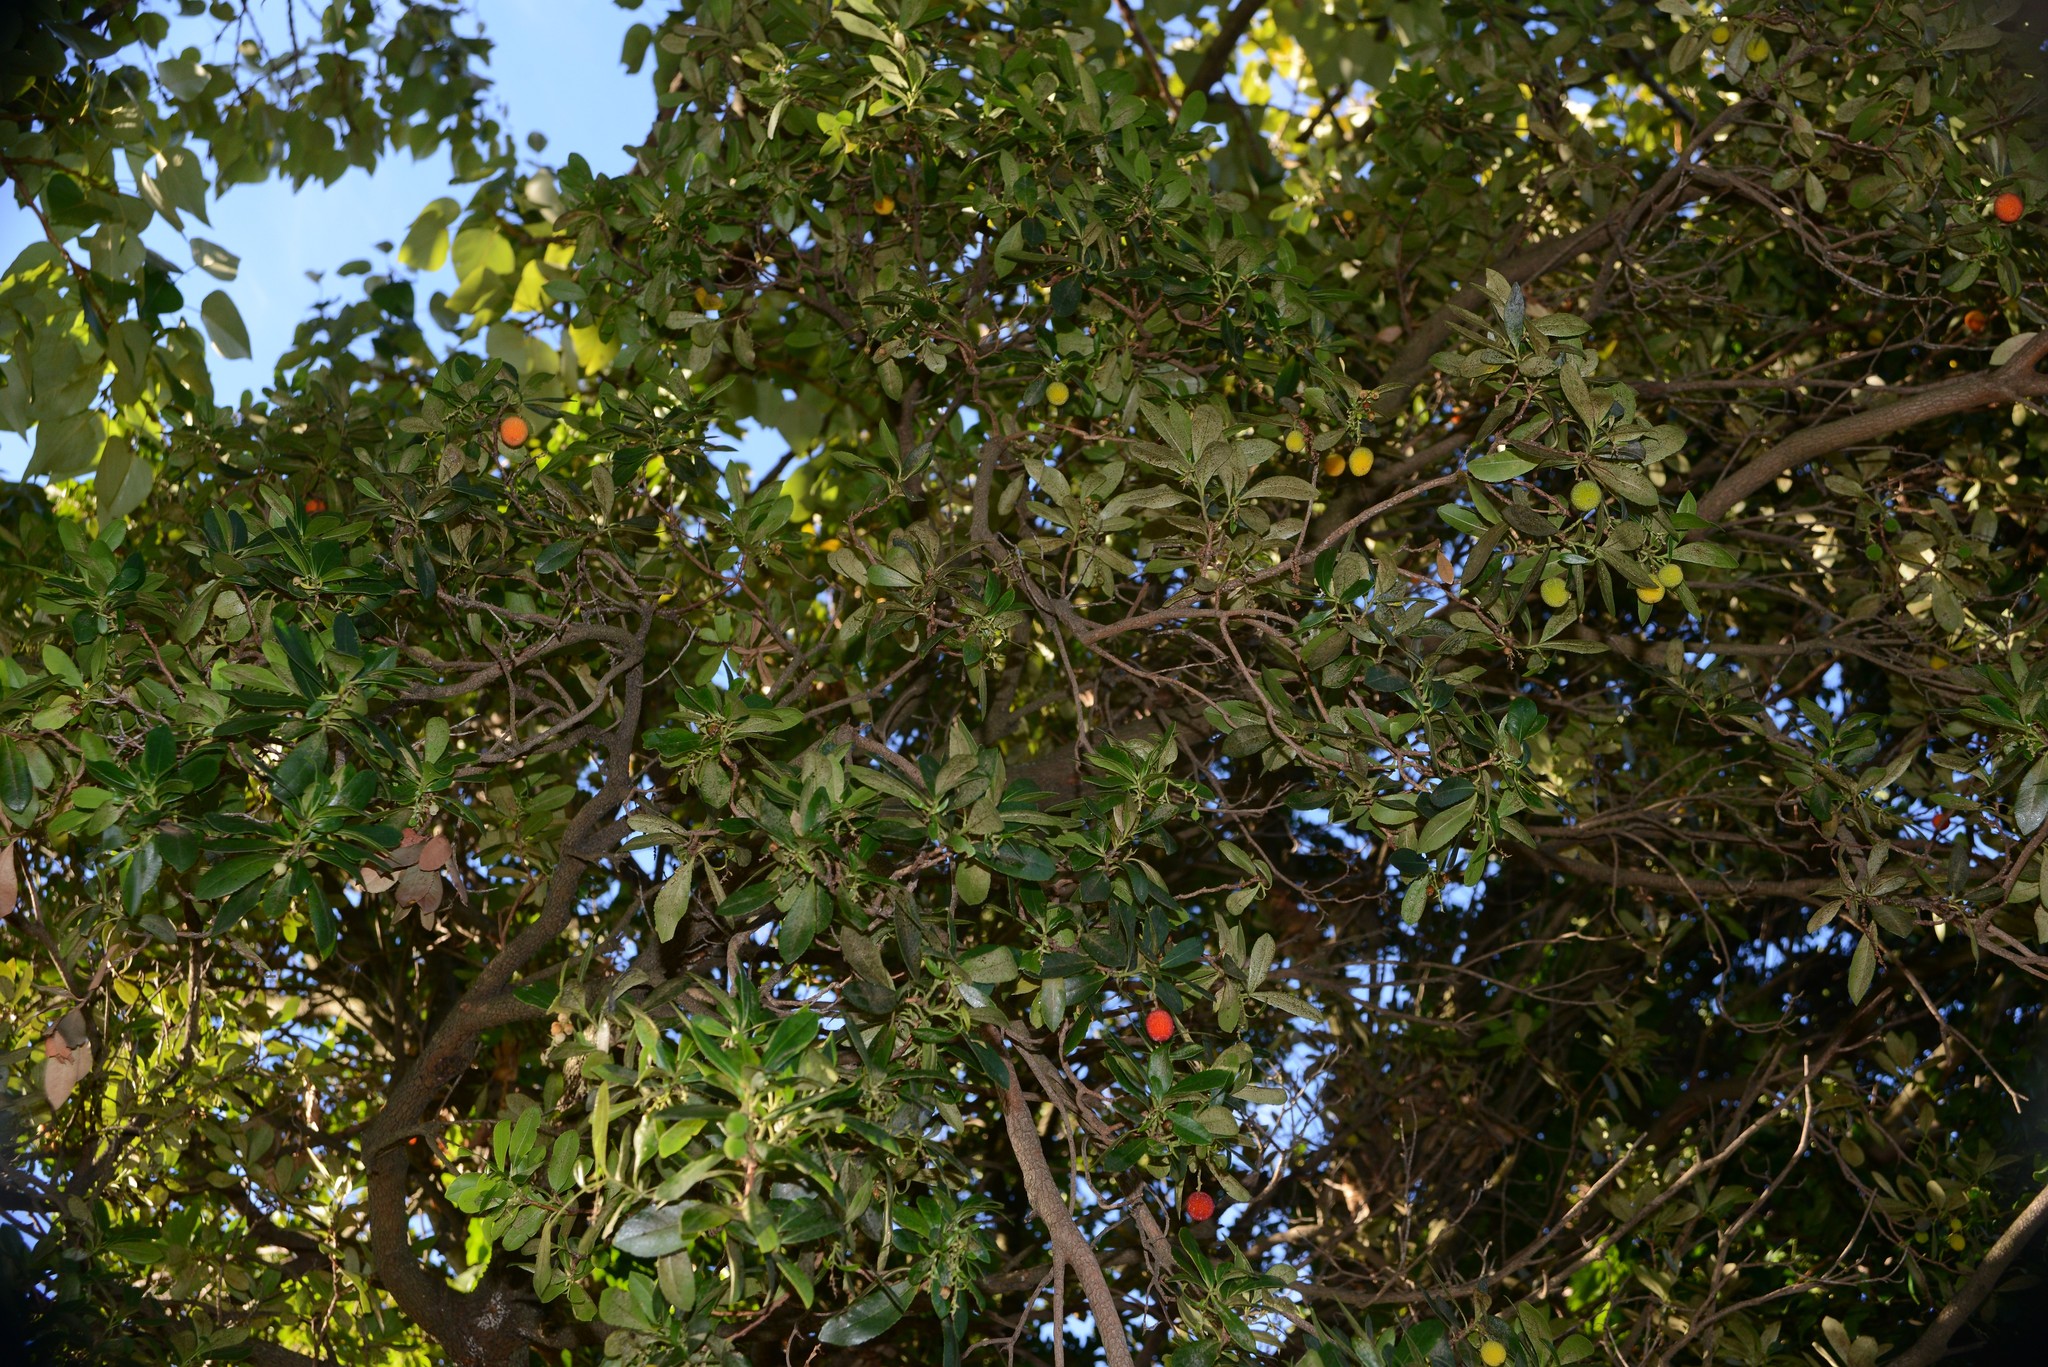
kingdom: Plantae
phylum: Tracheophyta
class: Magnoliopsida
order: Ericales
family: Ericaceae
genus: Arbutus
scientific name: Arbutus unedo
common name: Strawberry-tree
